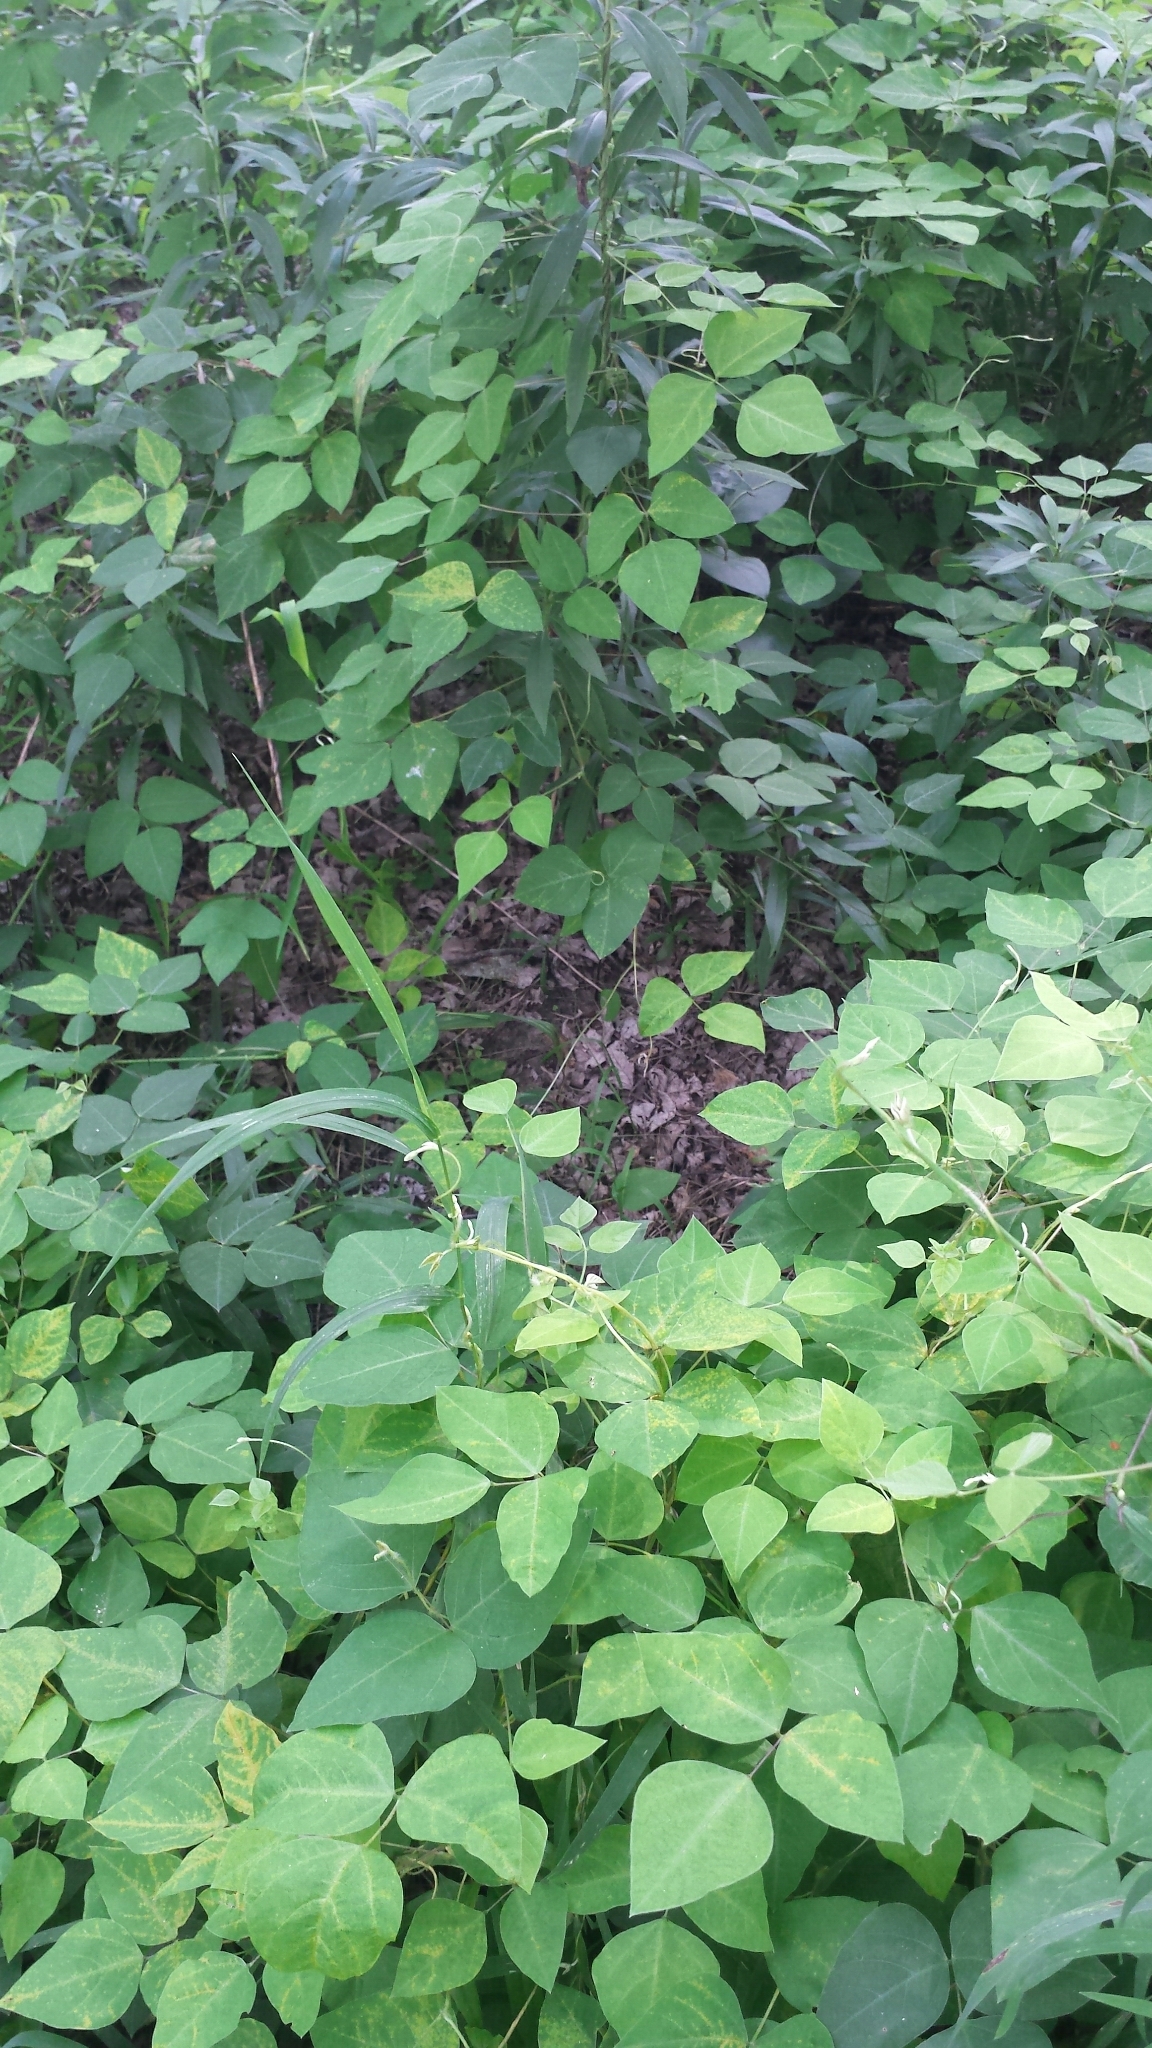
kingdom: Plantae
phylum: Tracheophyta
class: Magnoliopsida
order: Fabales
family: Fabaceae
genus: Amphicarpaea
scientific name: Amphicarpaea bracteata
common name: American hog peanut
